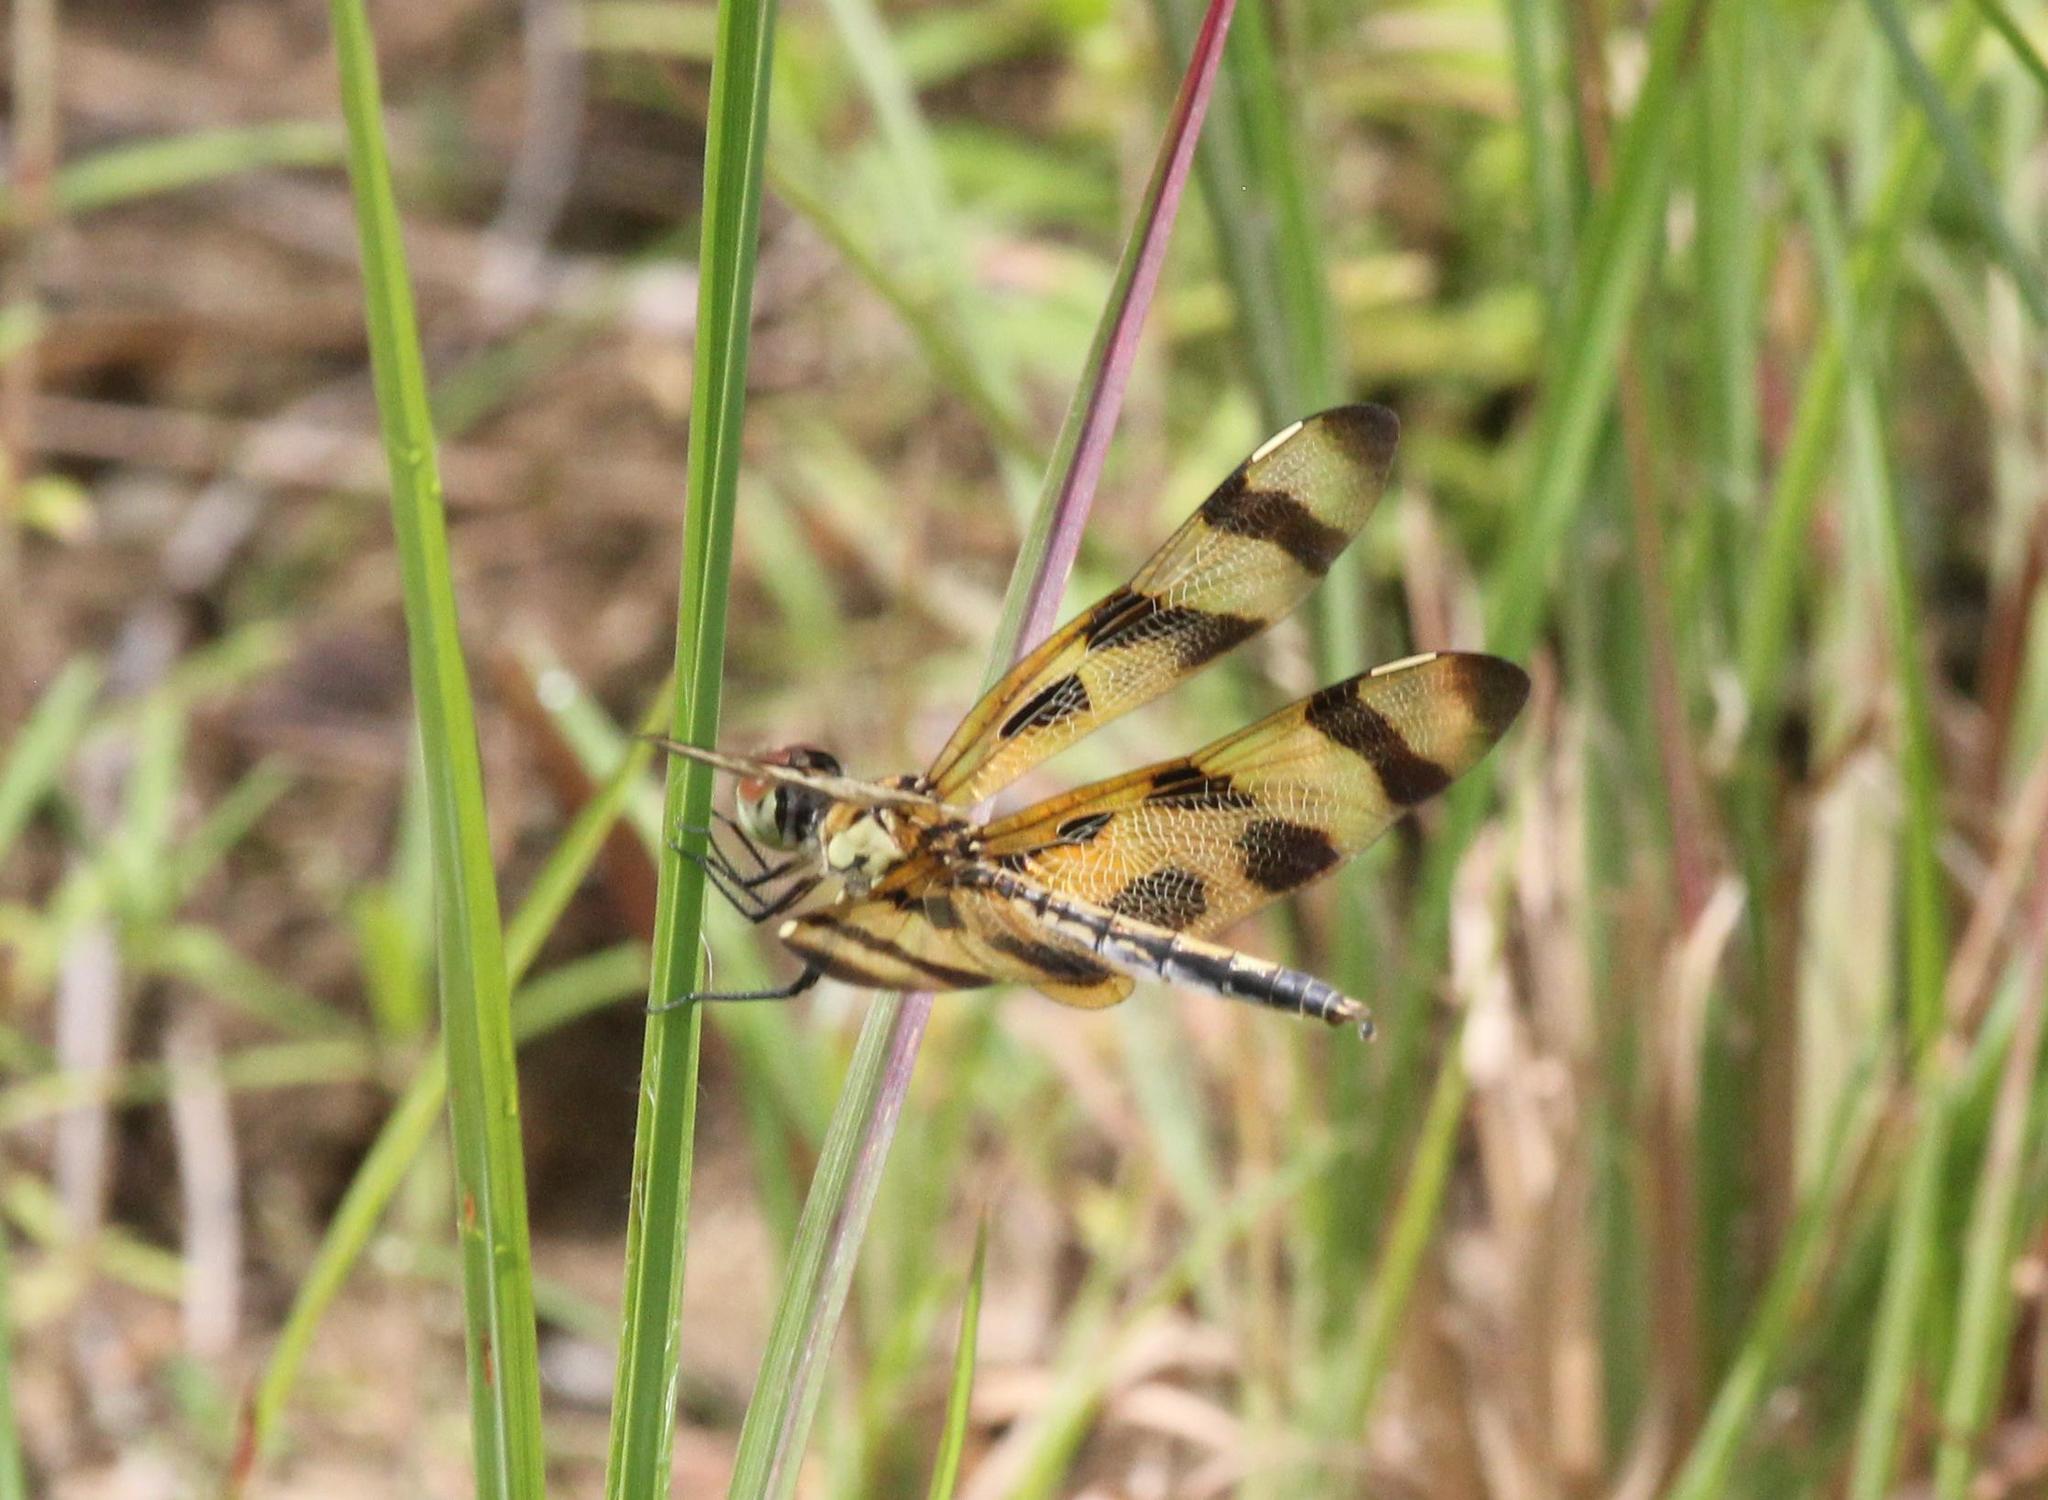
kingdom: Animalia
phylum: Arthropoda
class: Insecta
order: Odonata
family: Libellulidae
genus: Celithemis
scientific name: Celithemis eponina
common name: Halloween pennant
